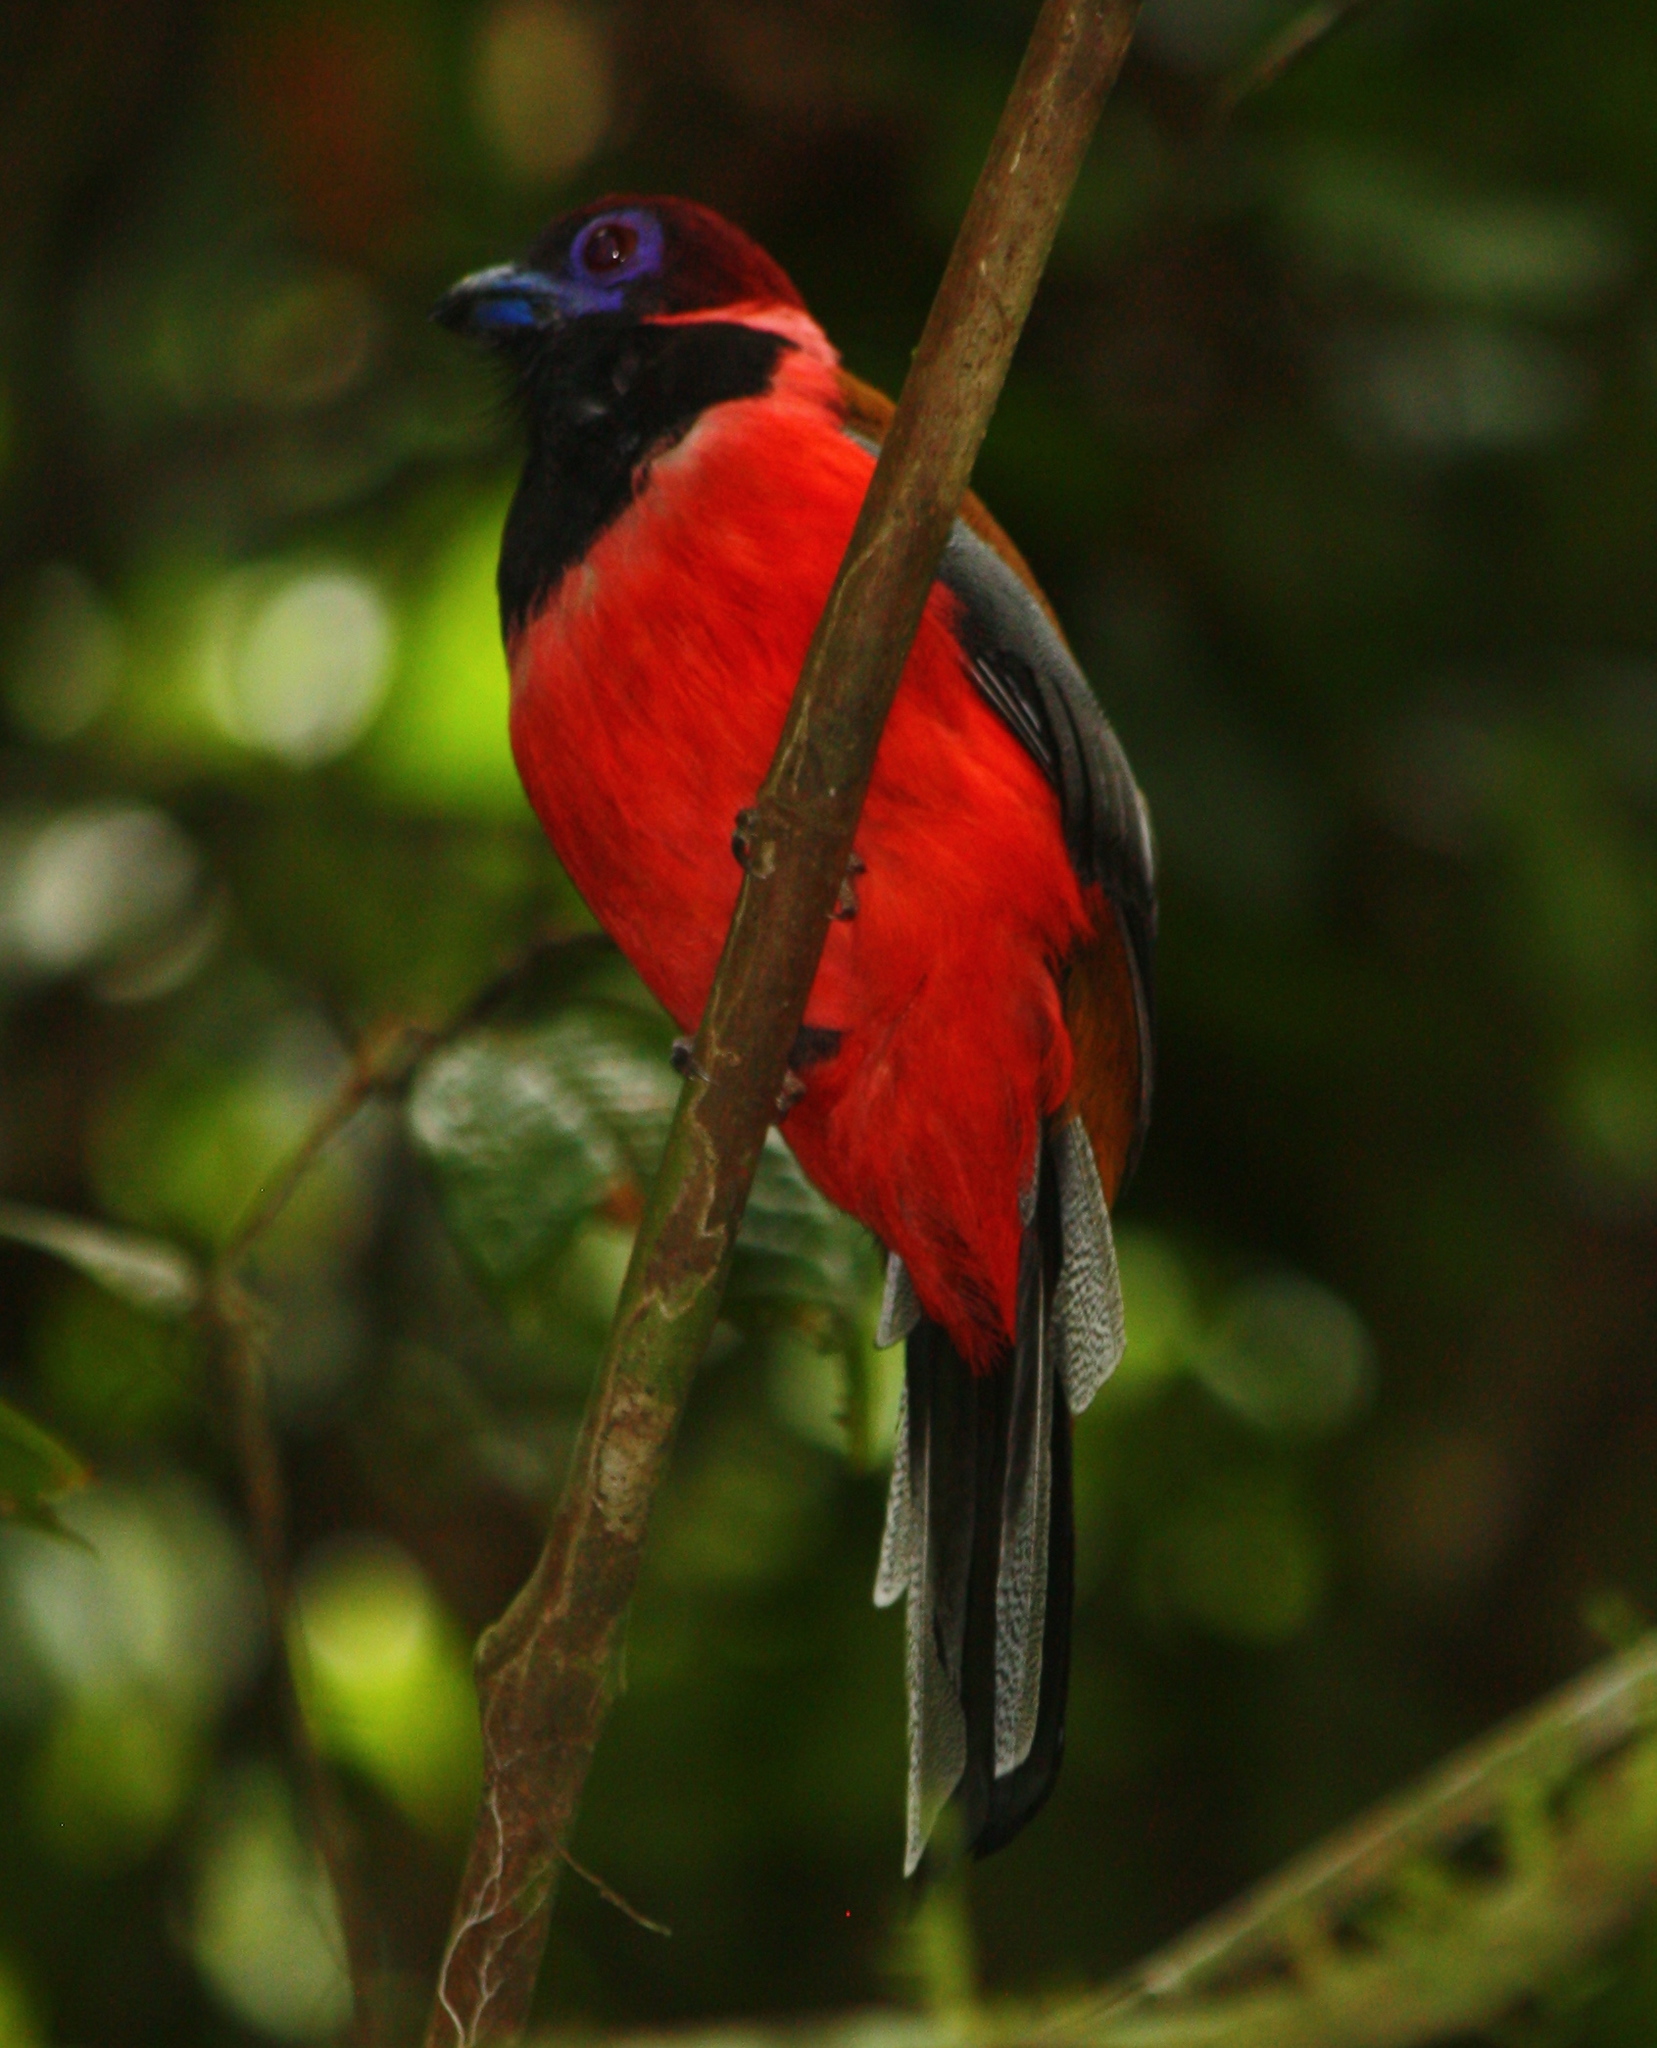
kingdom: Animalia
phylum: Chordata
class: Aves
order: Trogoniformes
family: Trogonidae
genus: Harpactes
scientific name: Harpactes diardii
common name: Diard's trogon
